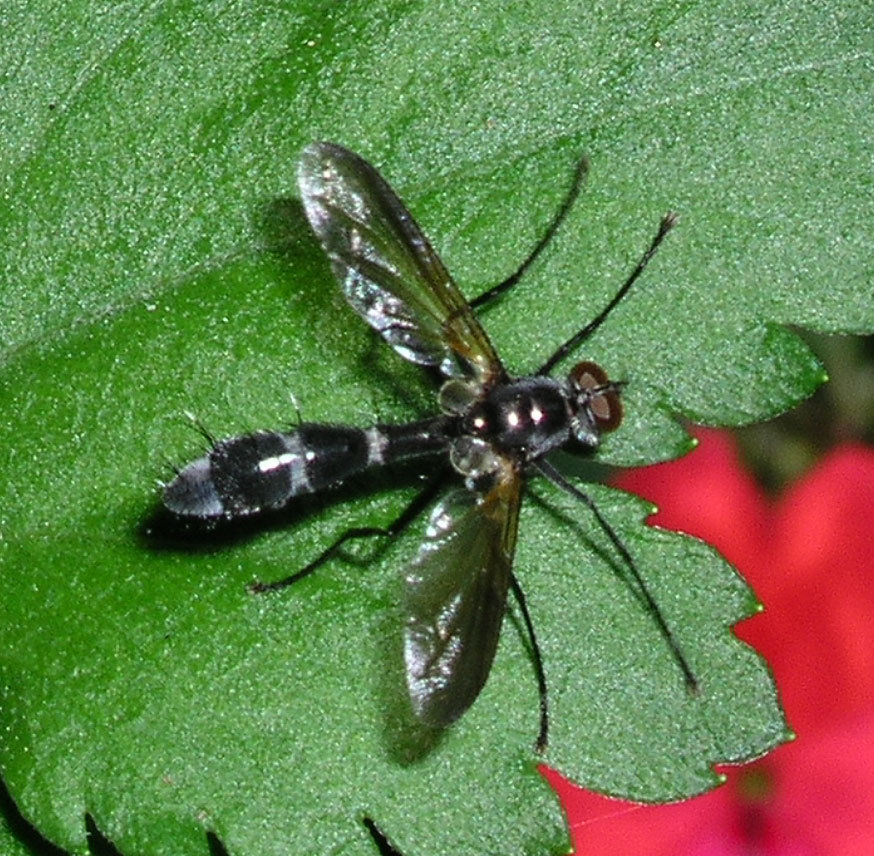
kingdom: Animalia
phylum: Arthropoda
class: Insecta
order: Diptera
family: Tachinidae
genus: Cordyligaster
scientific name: Cordyligaster septentrionalis
